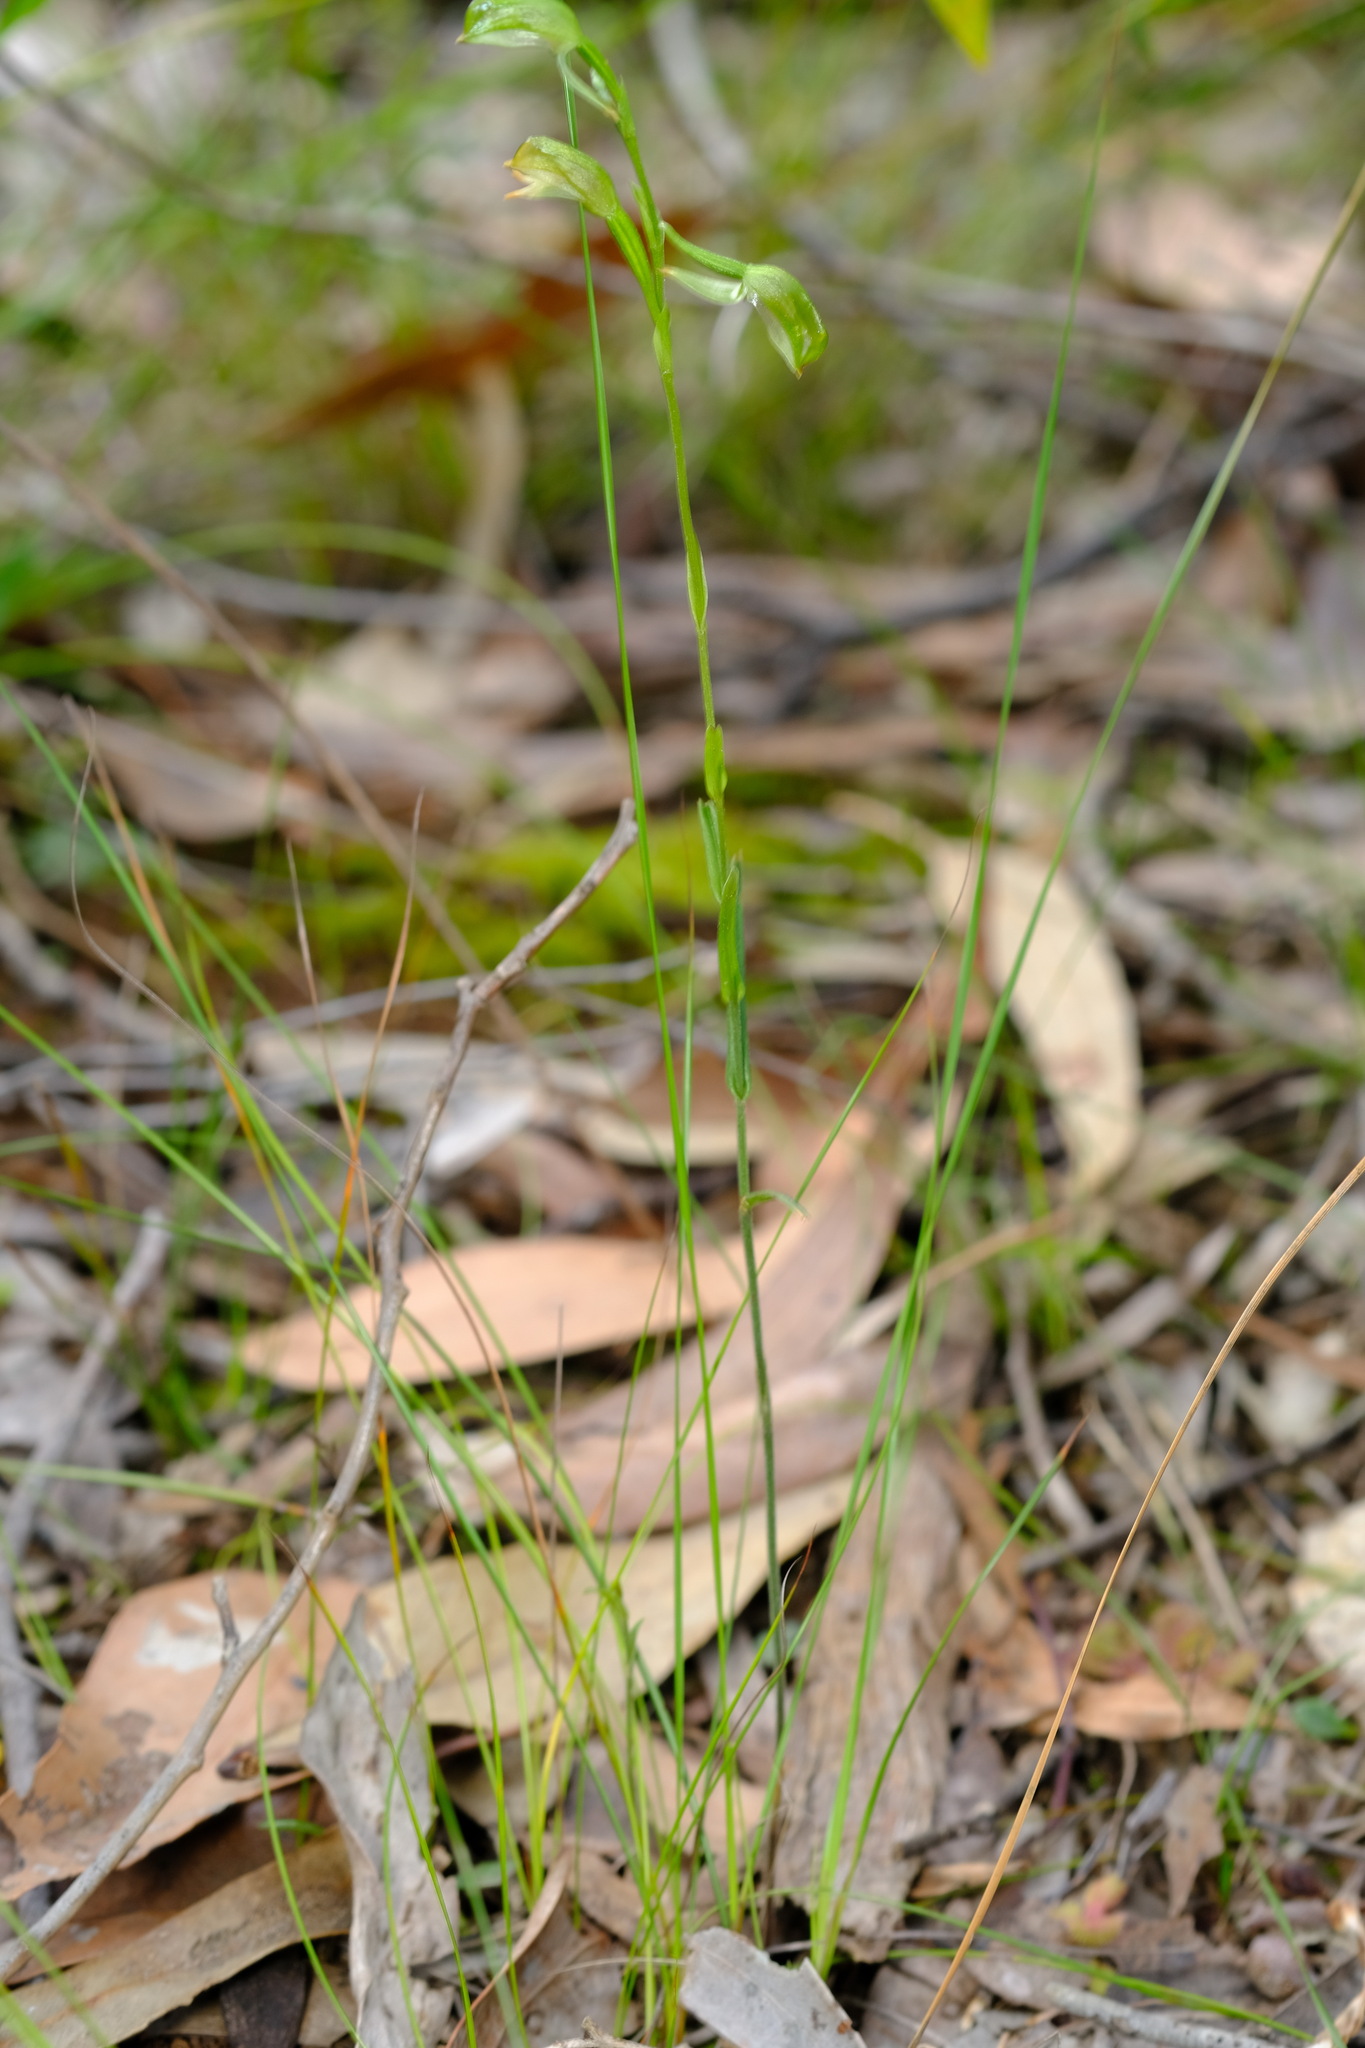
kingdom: Plantae
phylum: Tracheophyta
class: Liliopsida
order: Asparagales
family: Orchidaceae
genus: Pterostylis
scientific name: Pterostylis melagramma
